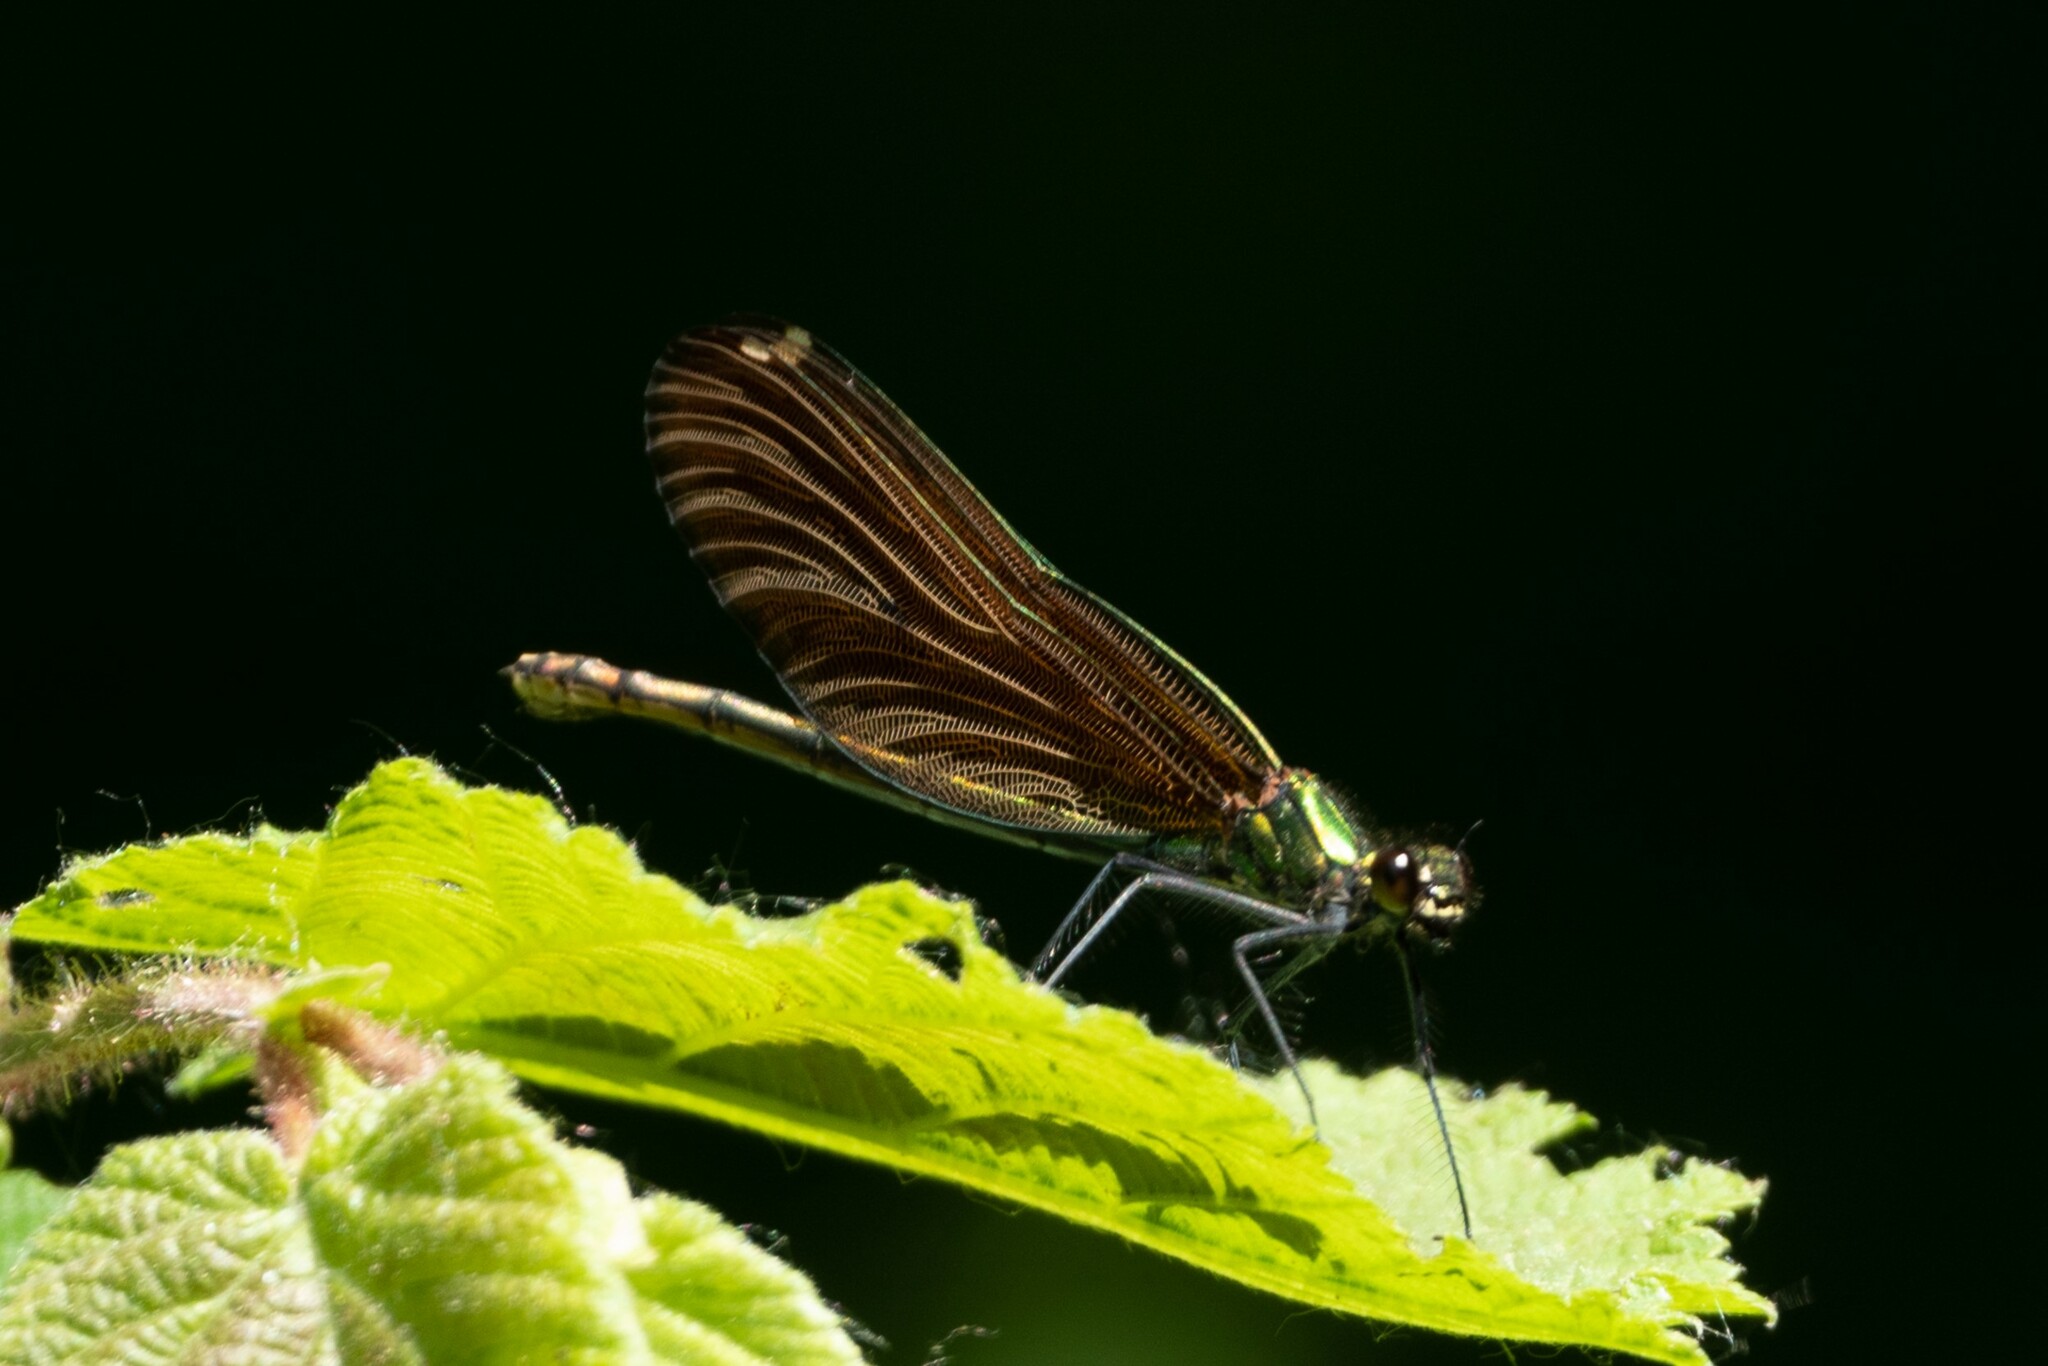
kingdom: Animalia
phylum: Arthropoda
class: Insecta
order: Odonata
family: Calopterygidae
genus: Calopteryx
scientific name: Calopteryx virgo
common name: Beautiful demoiselle
